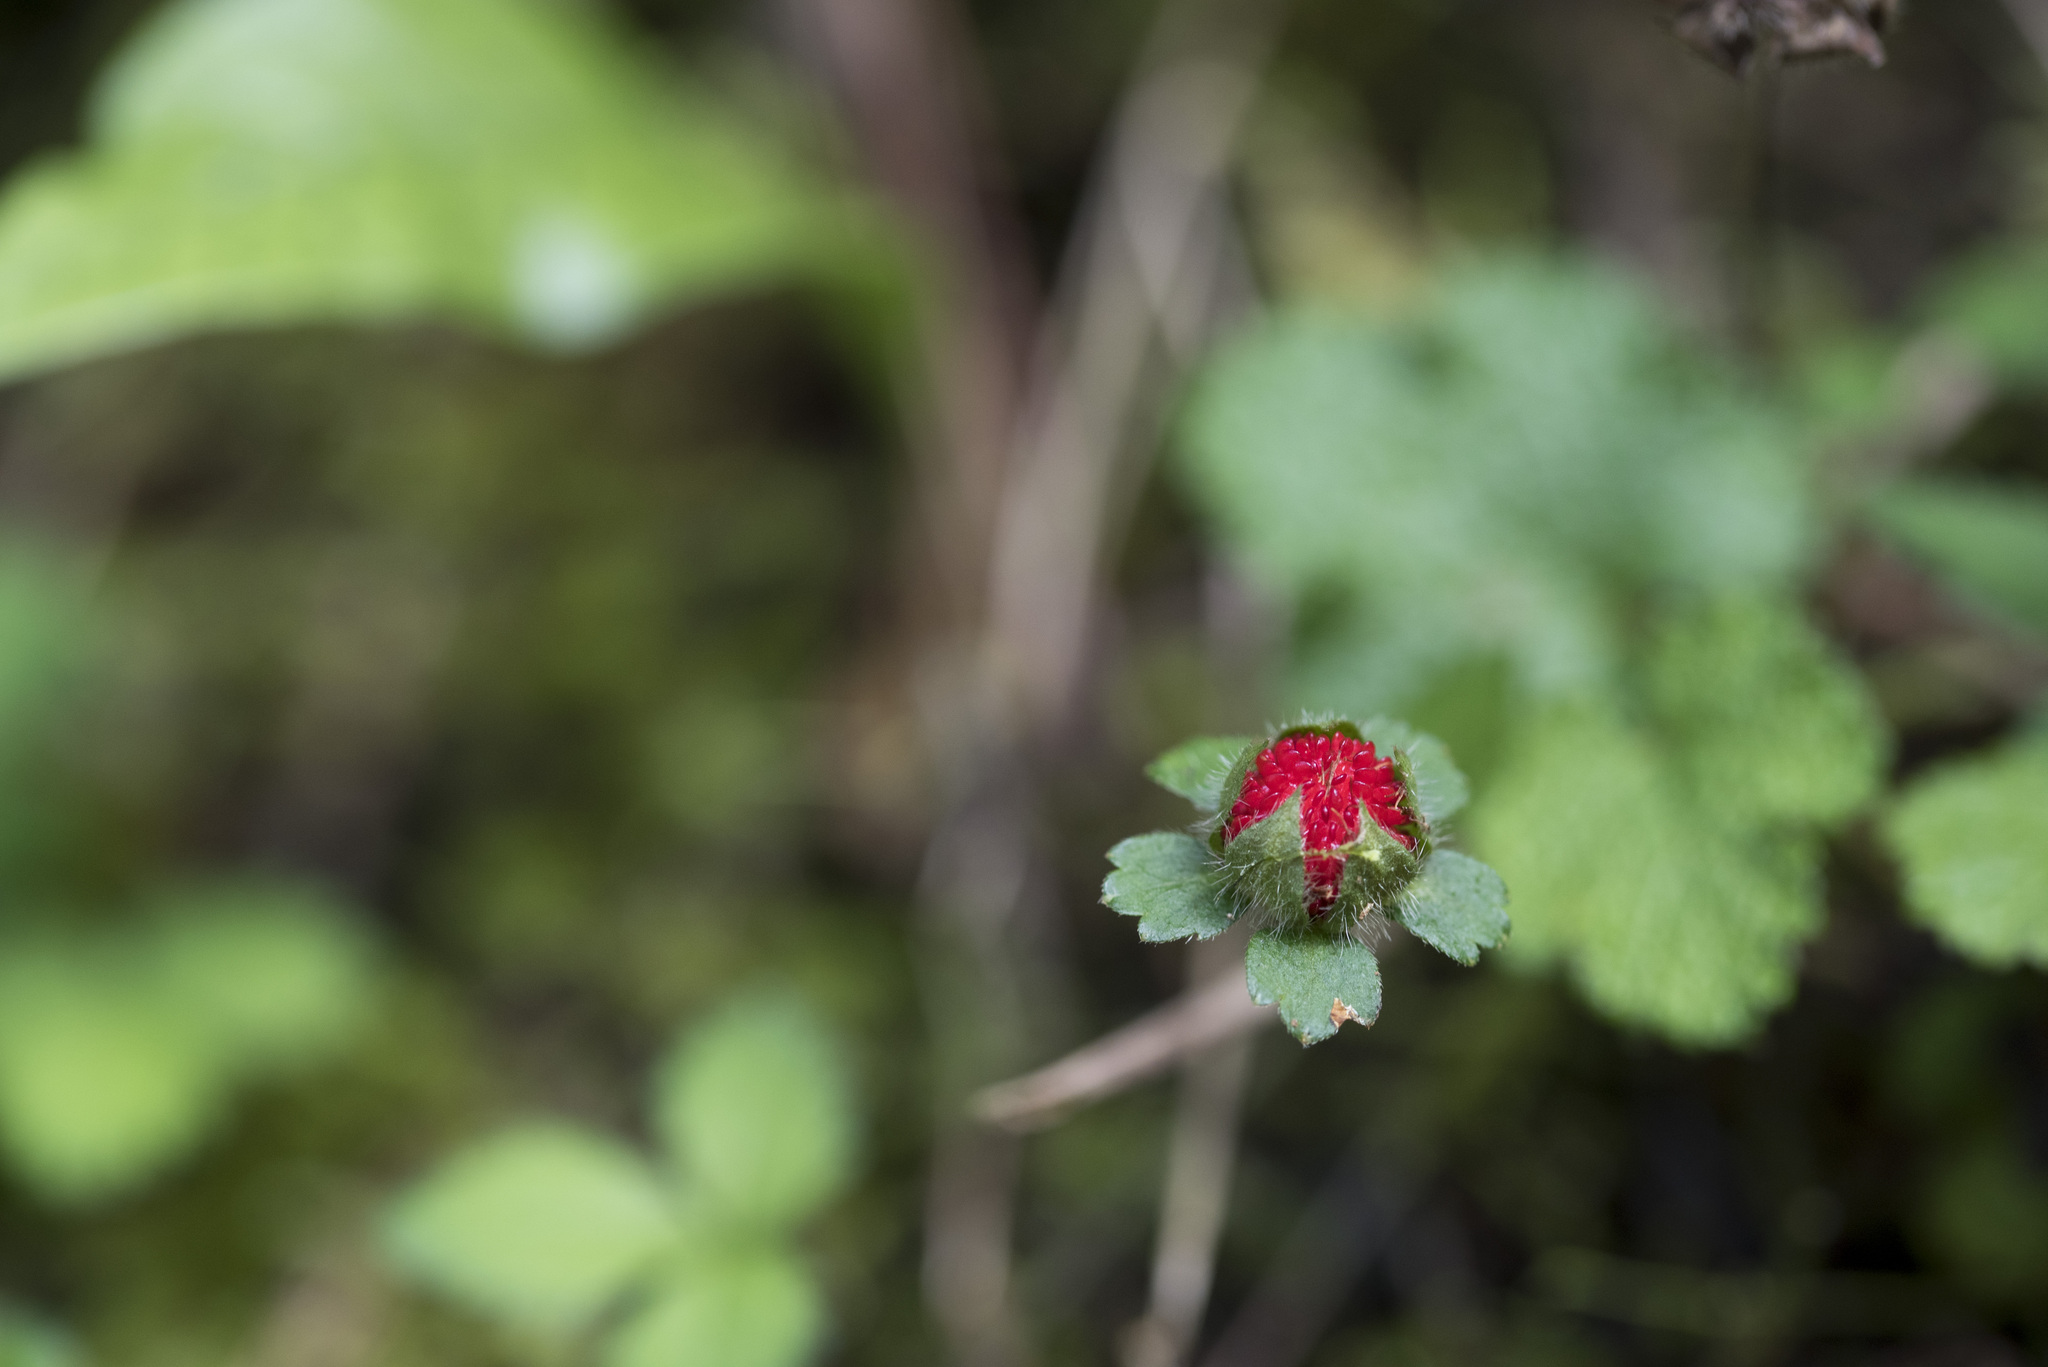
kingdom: Plantae
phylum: Tracheophyta
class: Magnoliopsida
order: Rosales
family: Rosaceae
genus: Potentilla
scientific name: Potentilla indica
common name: Yellow-flowered strawberry
